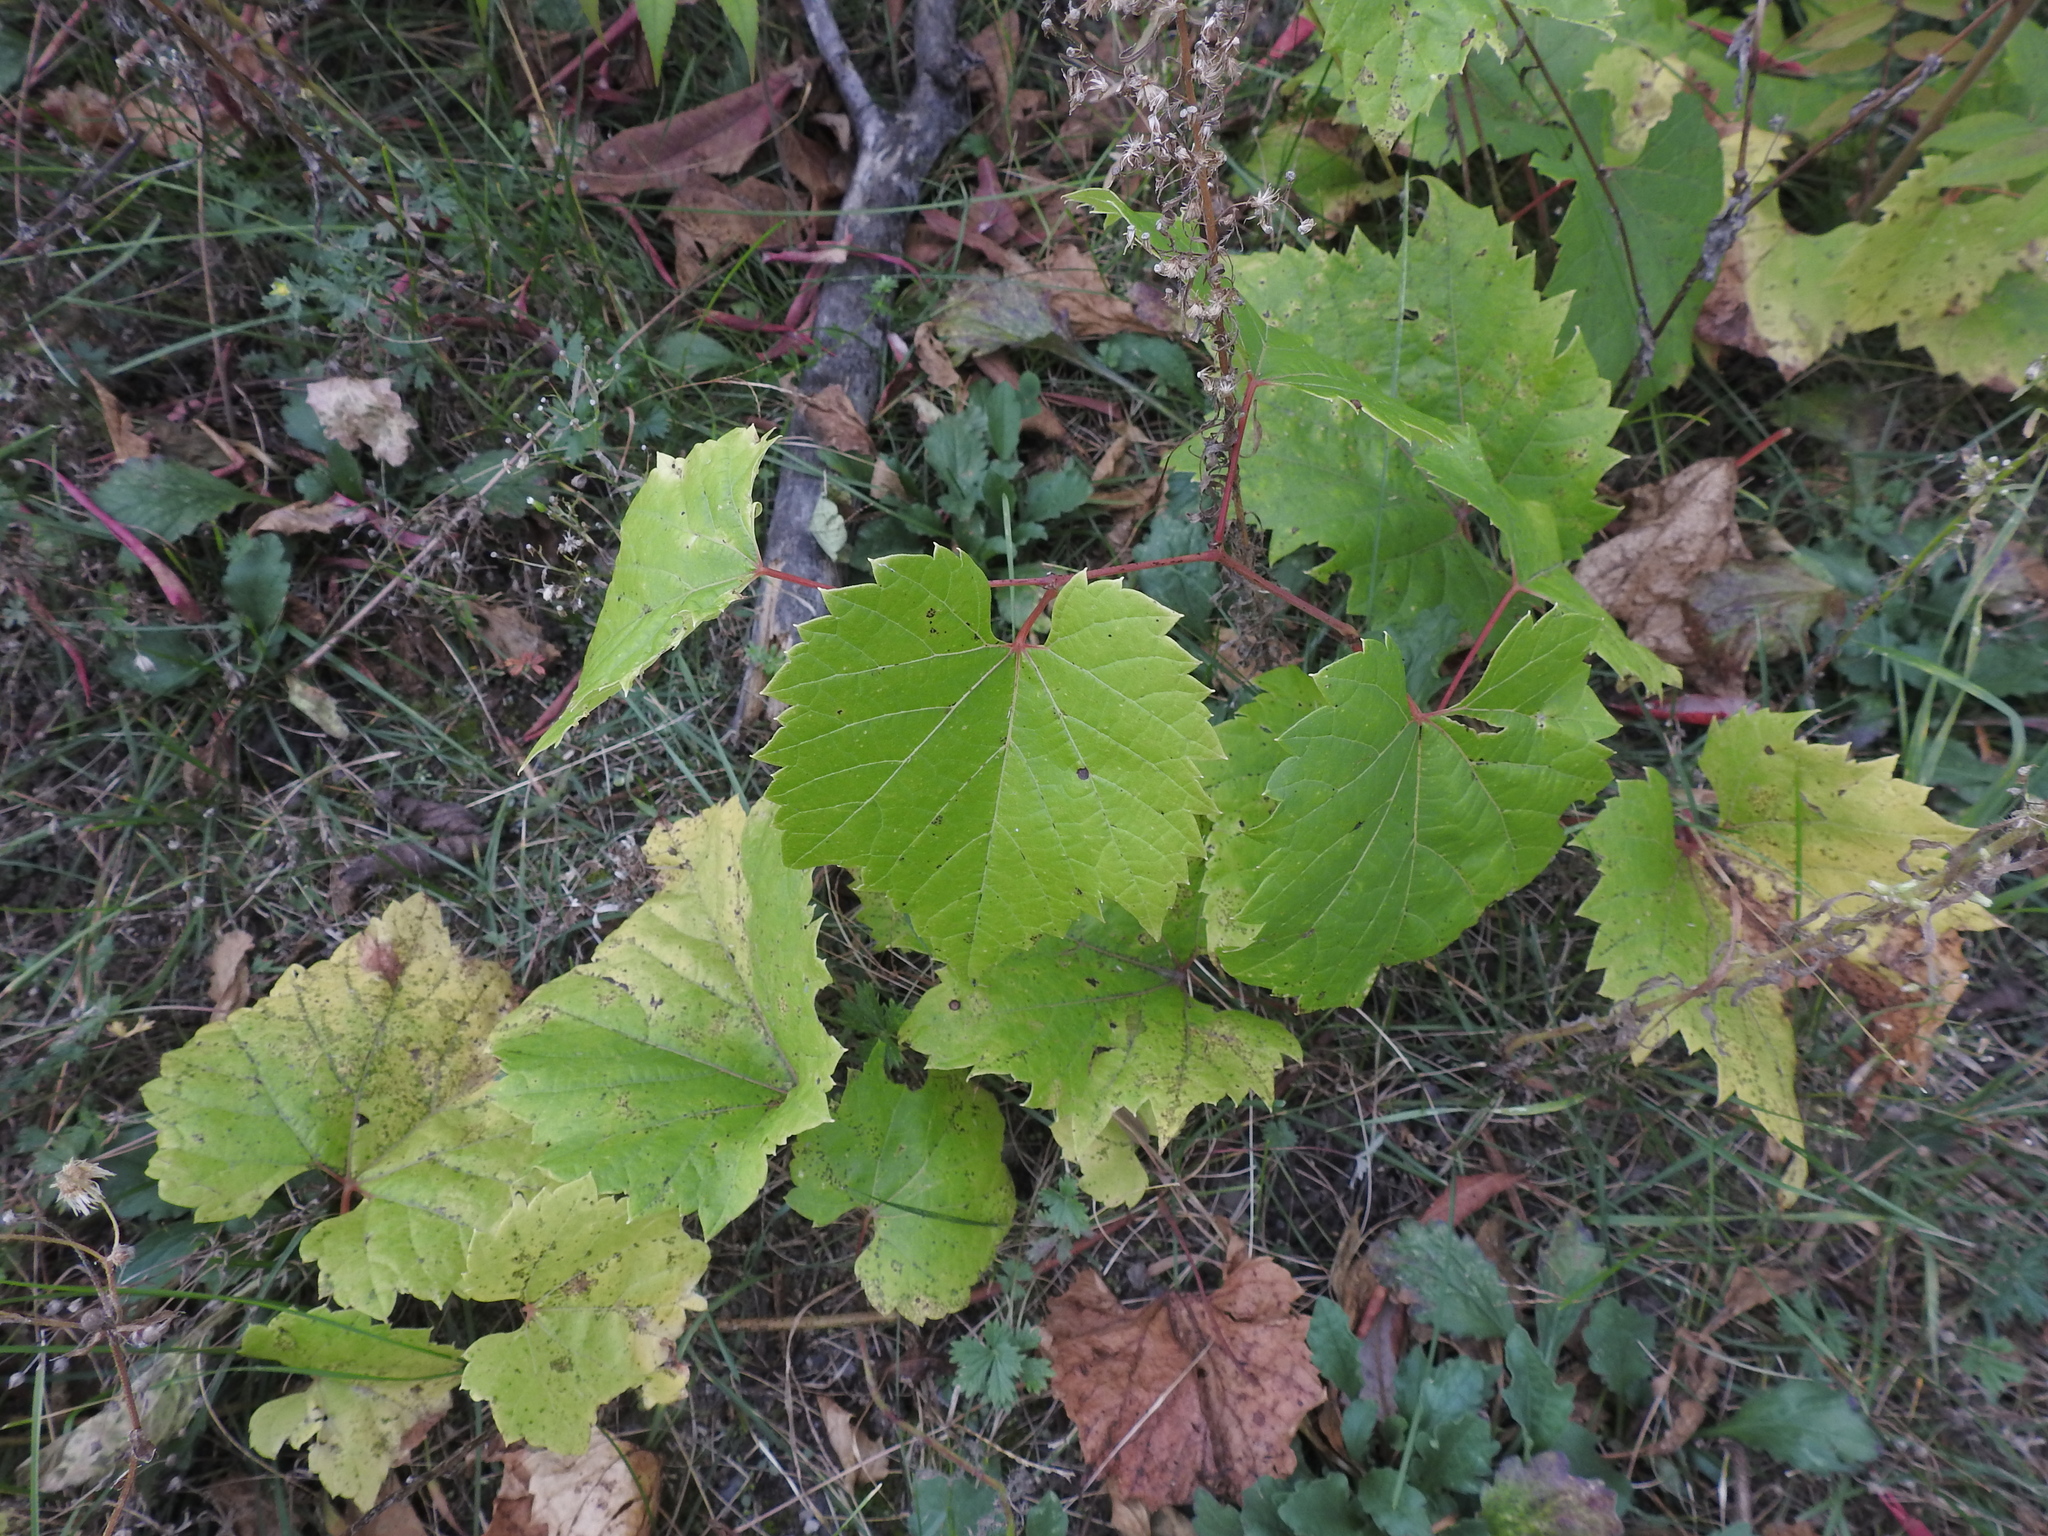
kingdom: Plantae
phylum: Tracheophyta
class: Magnoliopsida
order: Vitales
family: Vitaceae
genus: Vitis
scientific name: Vitis riparia
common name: Frost grape
